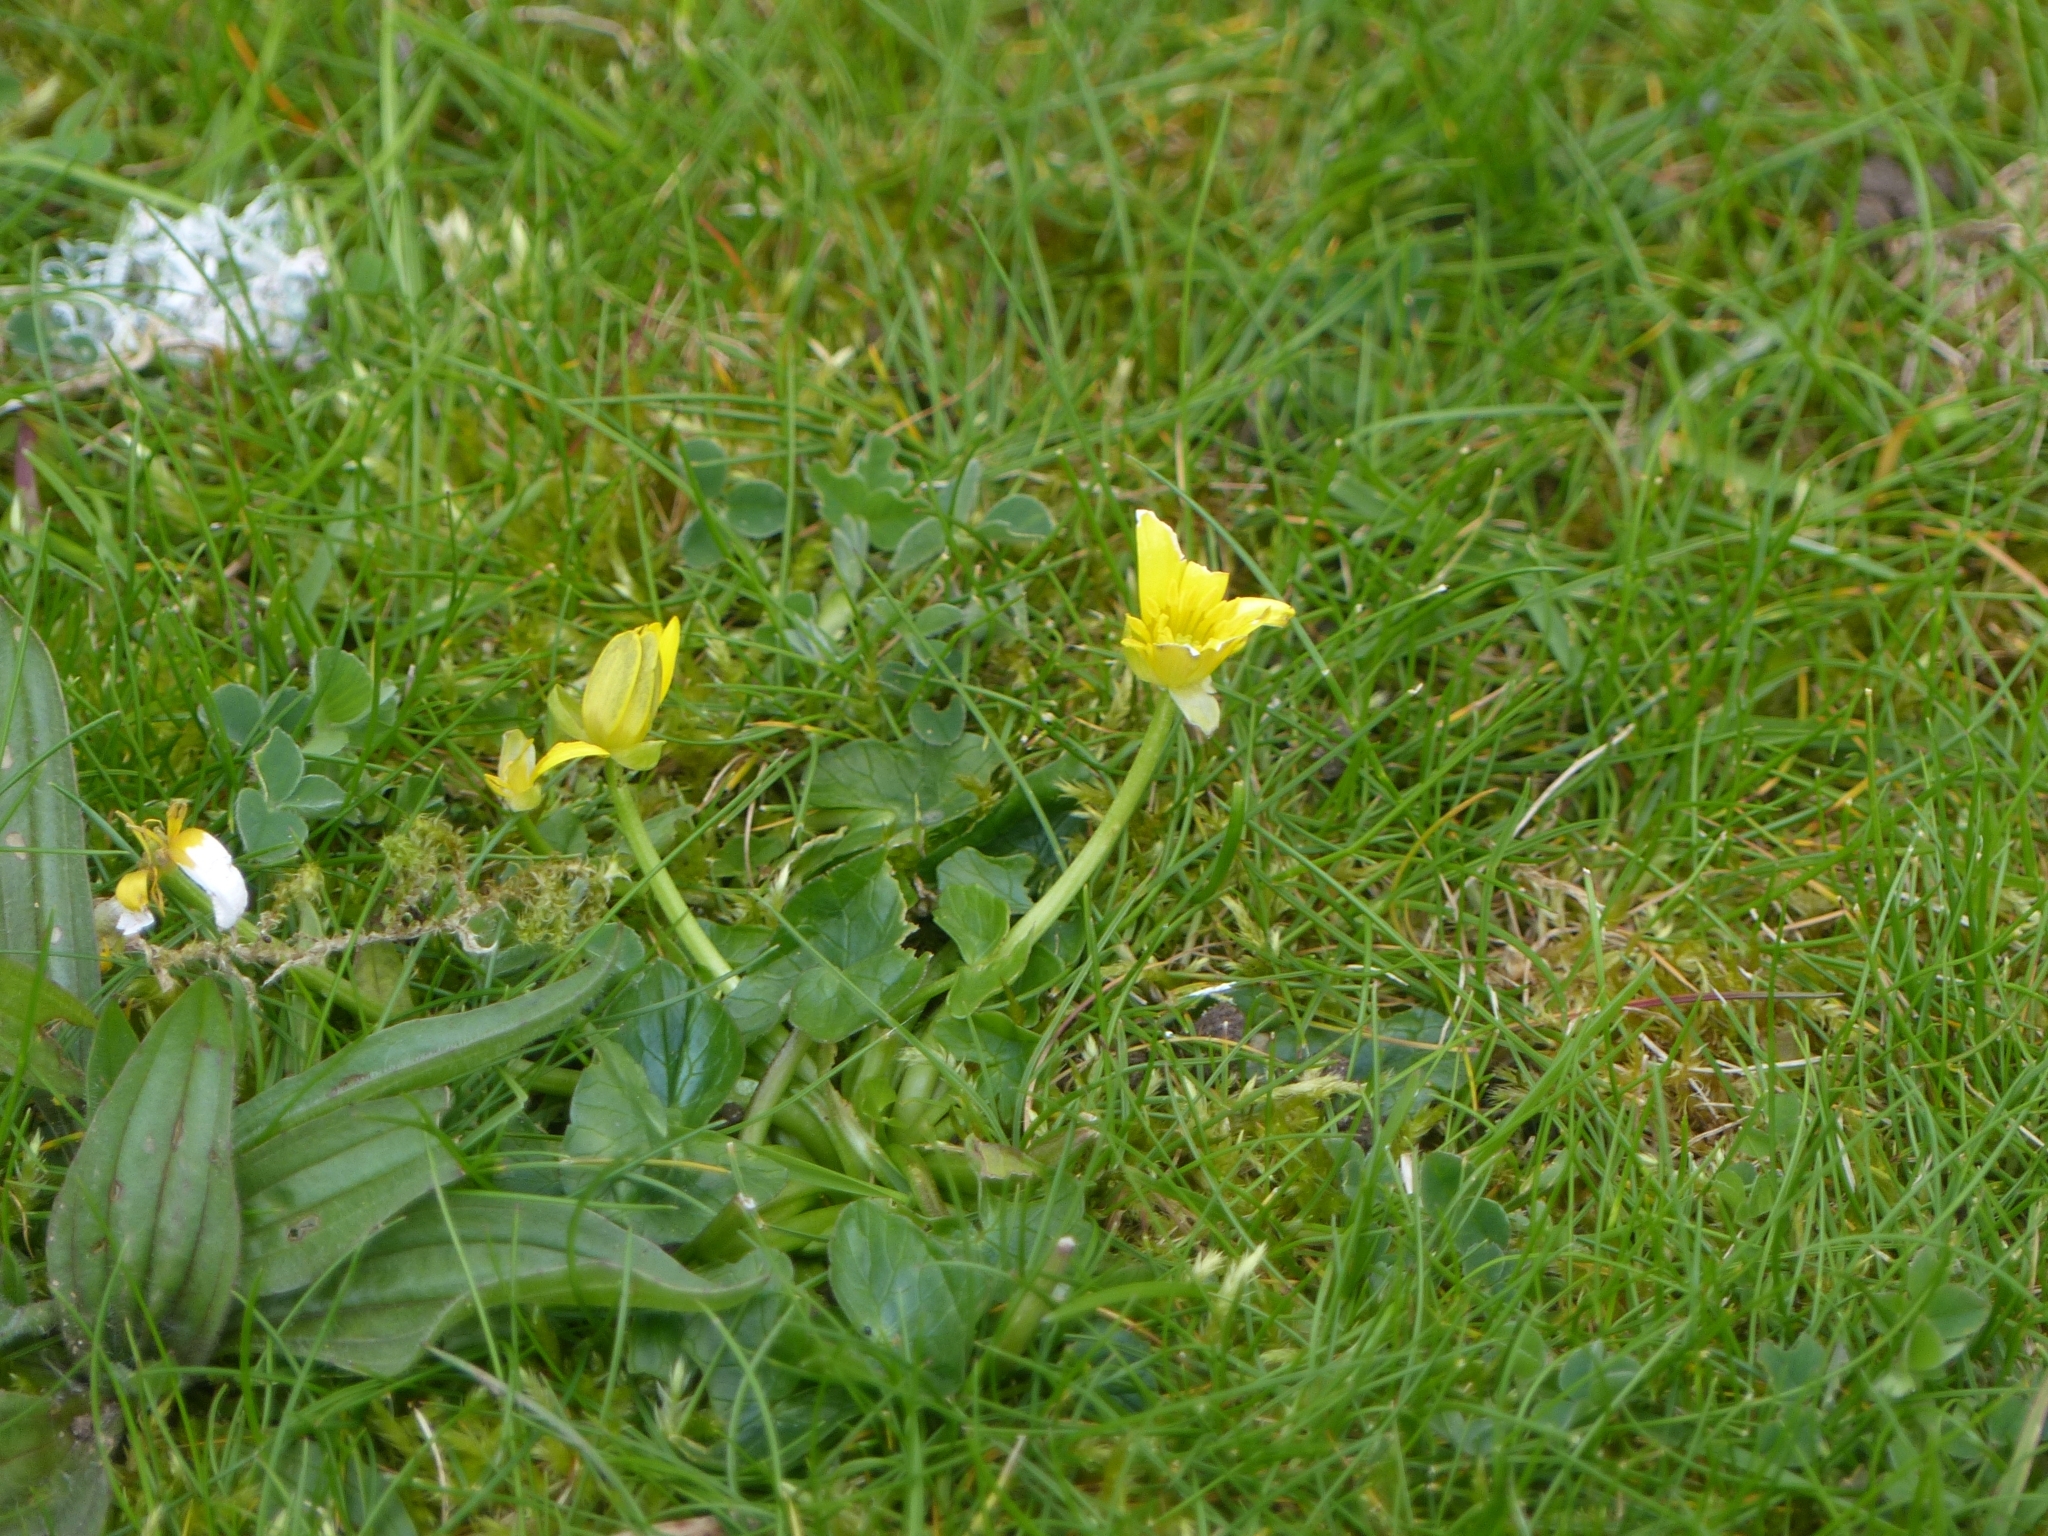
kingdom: Plantae
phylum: Tracheophyta
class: Magnoliopsida
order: Ranunculales
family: Ranunculaceae
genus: Ficaria
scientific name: Ficaria verna
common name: Lesser celandine
